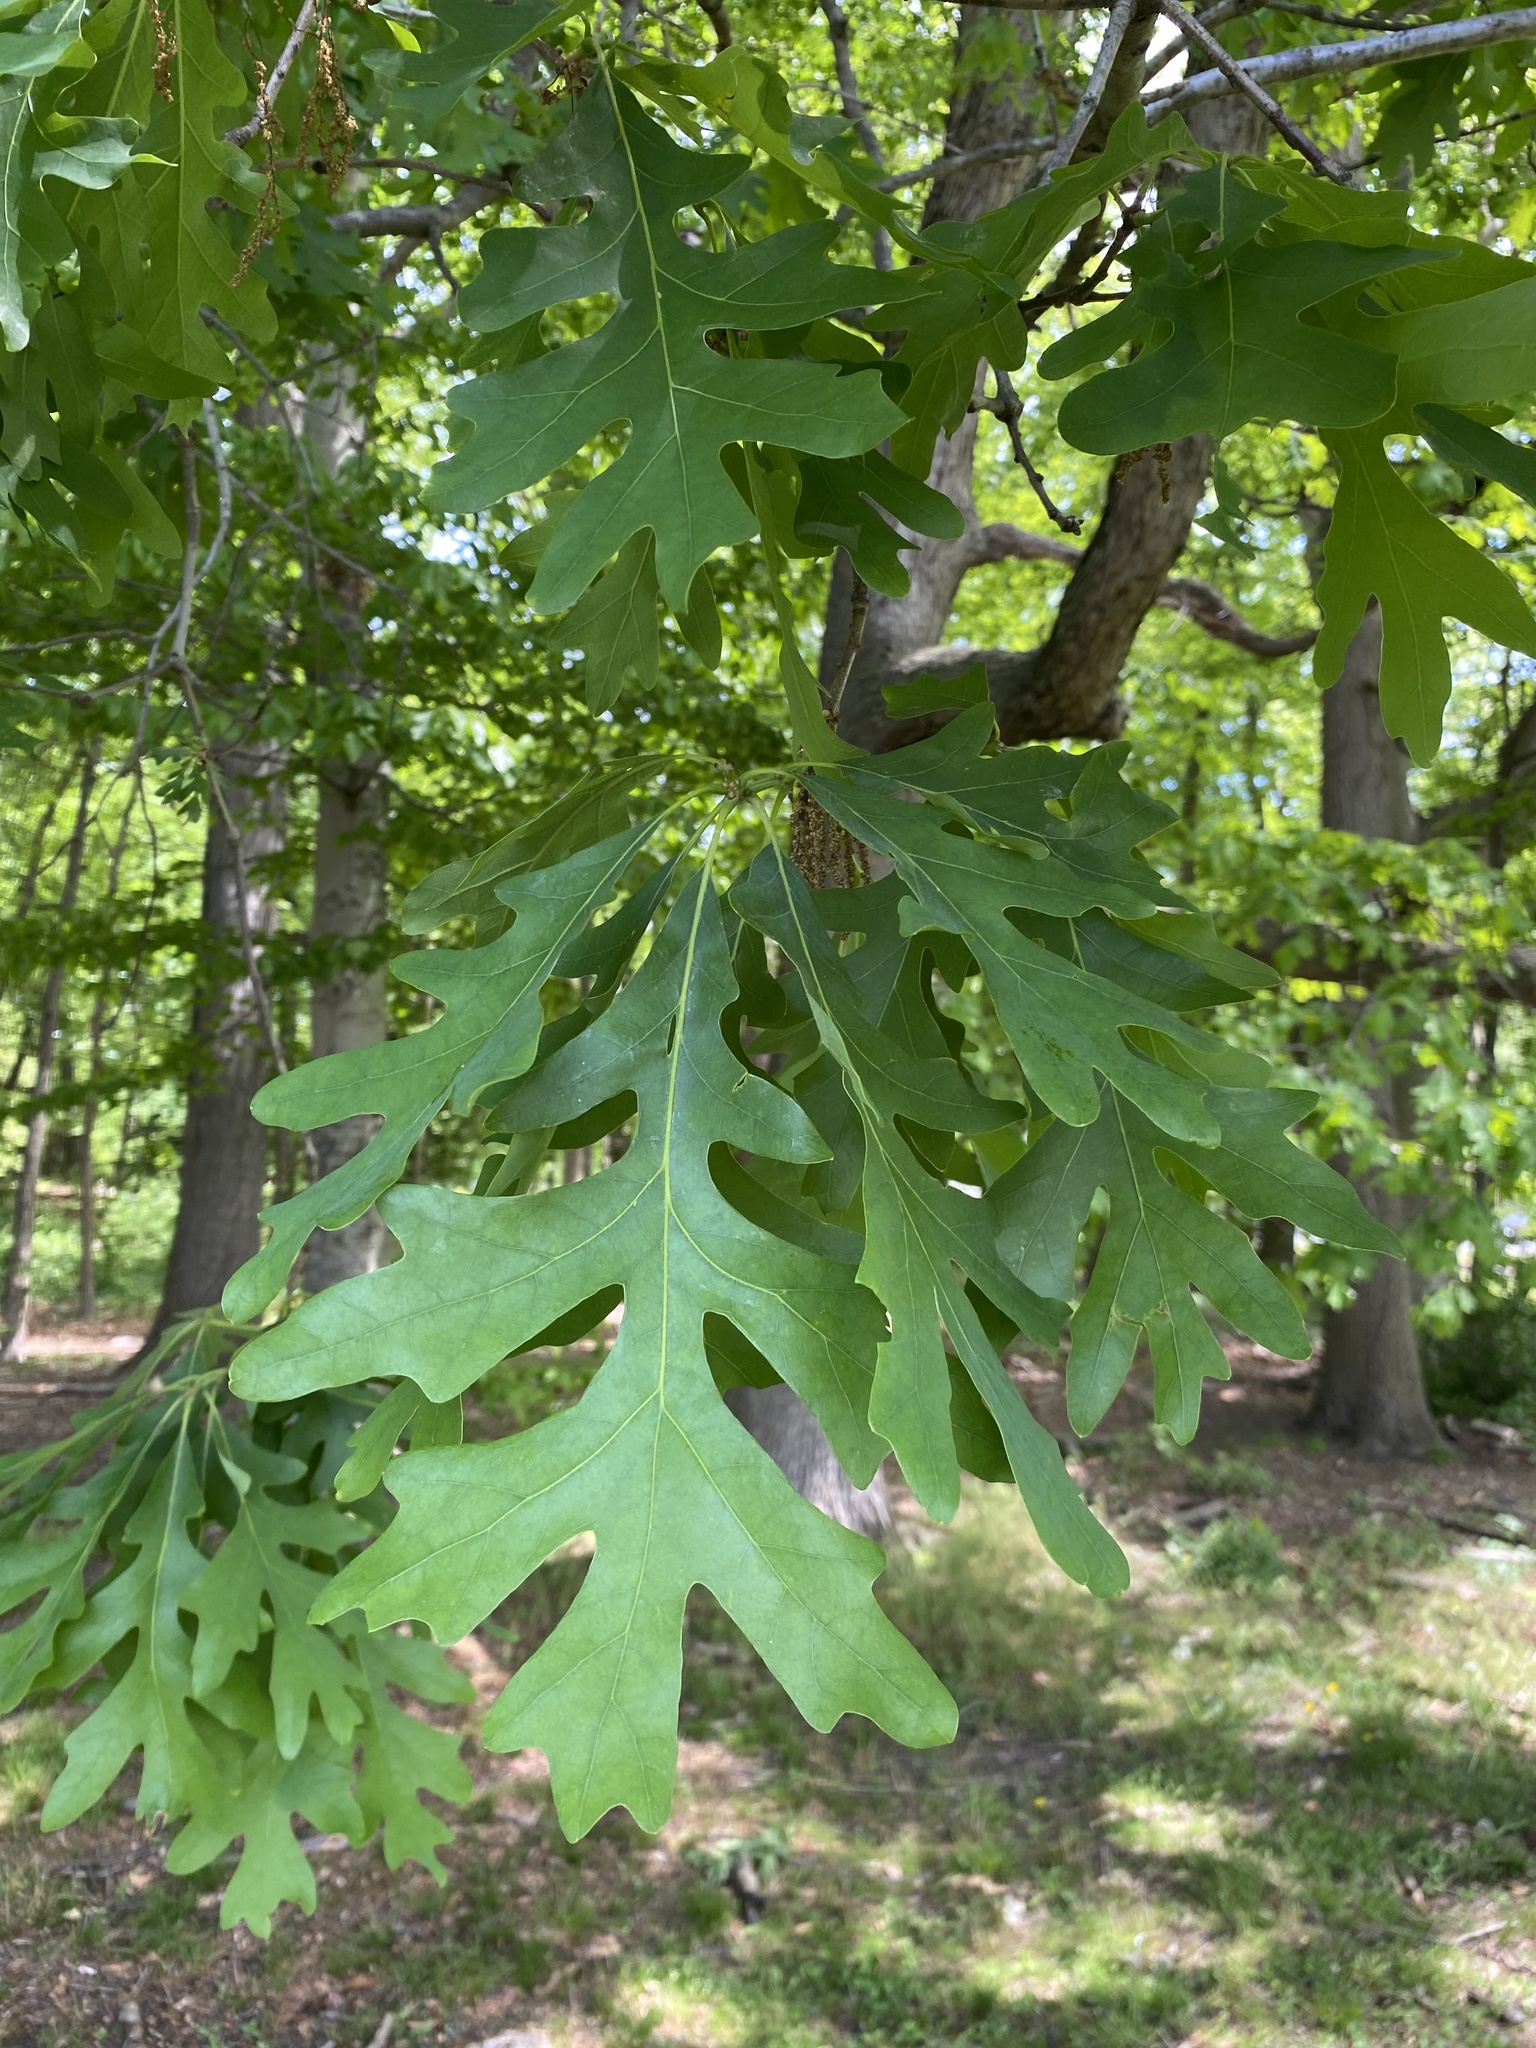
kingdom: Plantae
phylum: Tracheophyta
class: Magnoliopsida
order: Fagales
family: Fagaceae
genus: Quercus
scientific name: Quercus alba
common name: White oak
